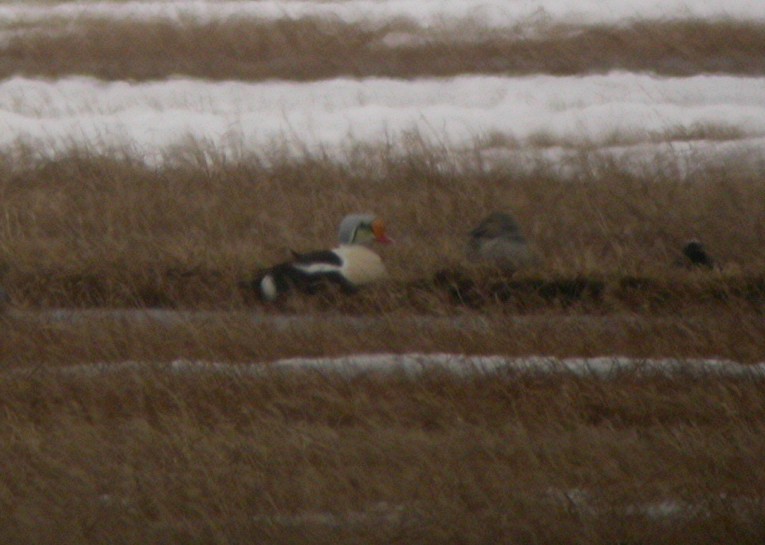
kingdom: Animalia
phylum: Chordata
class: Aves
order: Anseriformes
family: Anatidae
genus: Somateria
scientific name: Somateria spectabilis
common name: King eider
